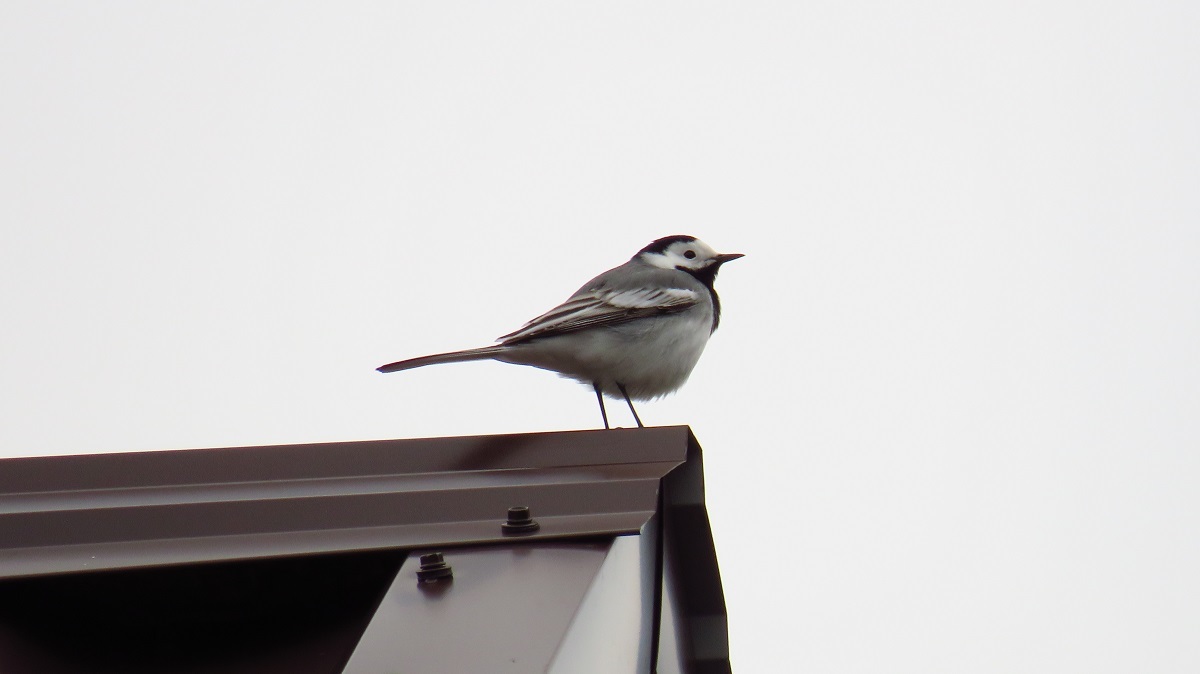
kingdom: Animalia
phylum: Chordata
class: Aves
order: Passeriformes
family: Motacillidae
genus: Motacilla
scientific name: Motacilla alba
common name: White wagtail
